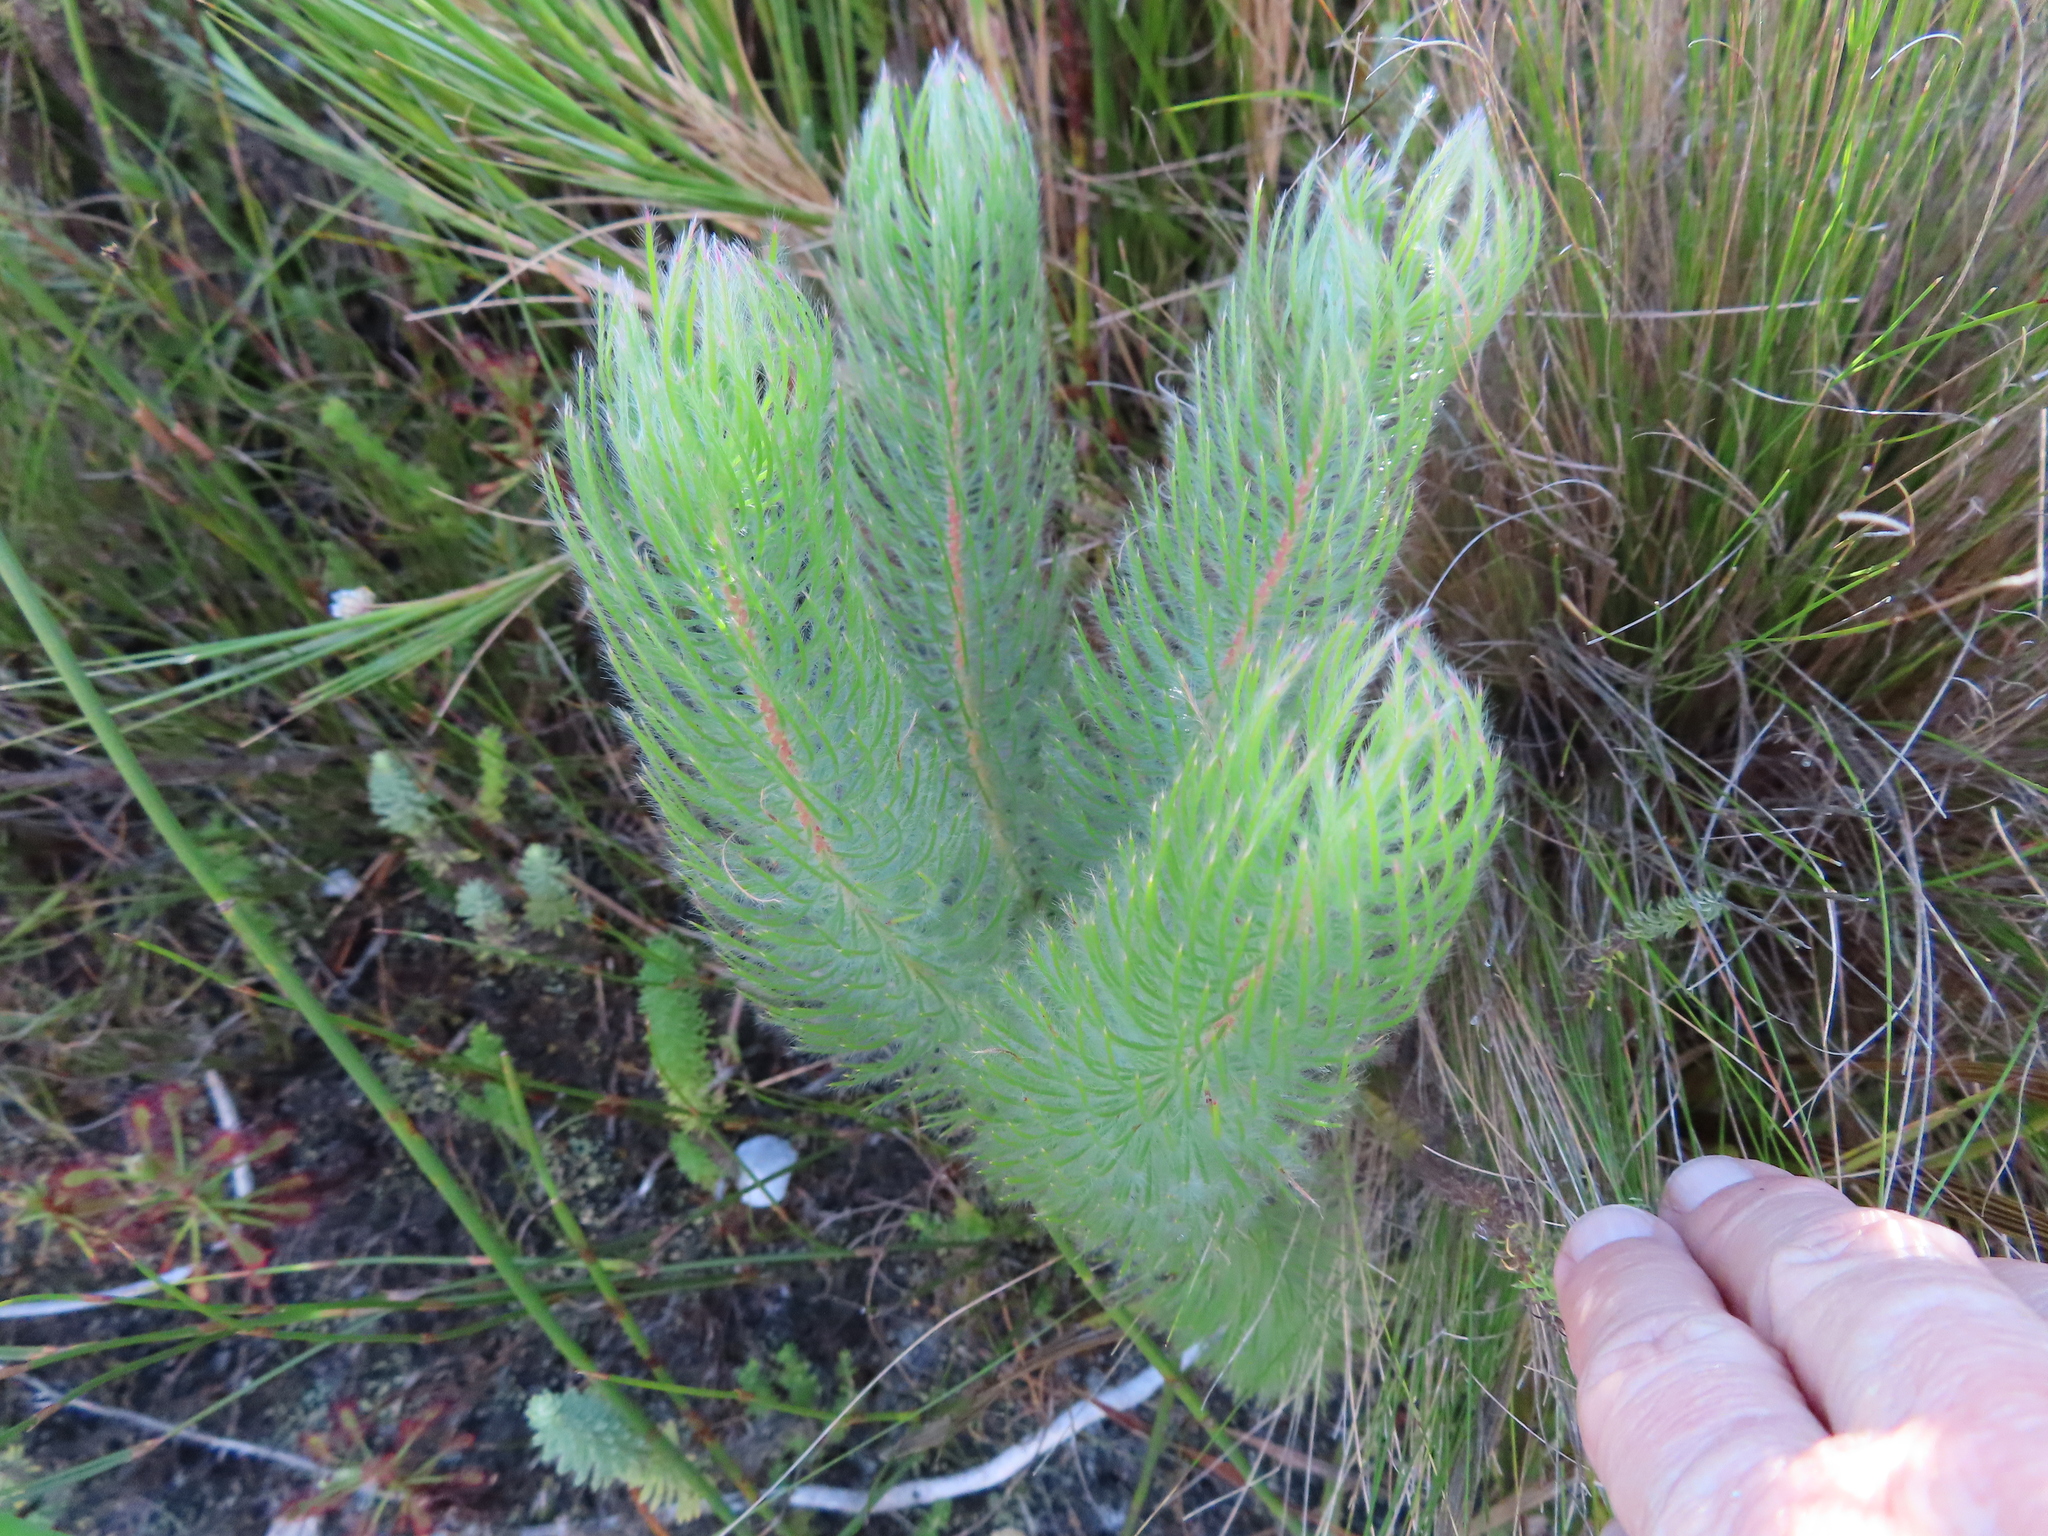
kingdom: Plantae
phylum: Tracheophyta
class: Magnoliopsida
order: Proteales
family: Proteaceae
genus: Spatalla
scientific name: Spatalla setacea
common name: Needle-leaf spoon
